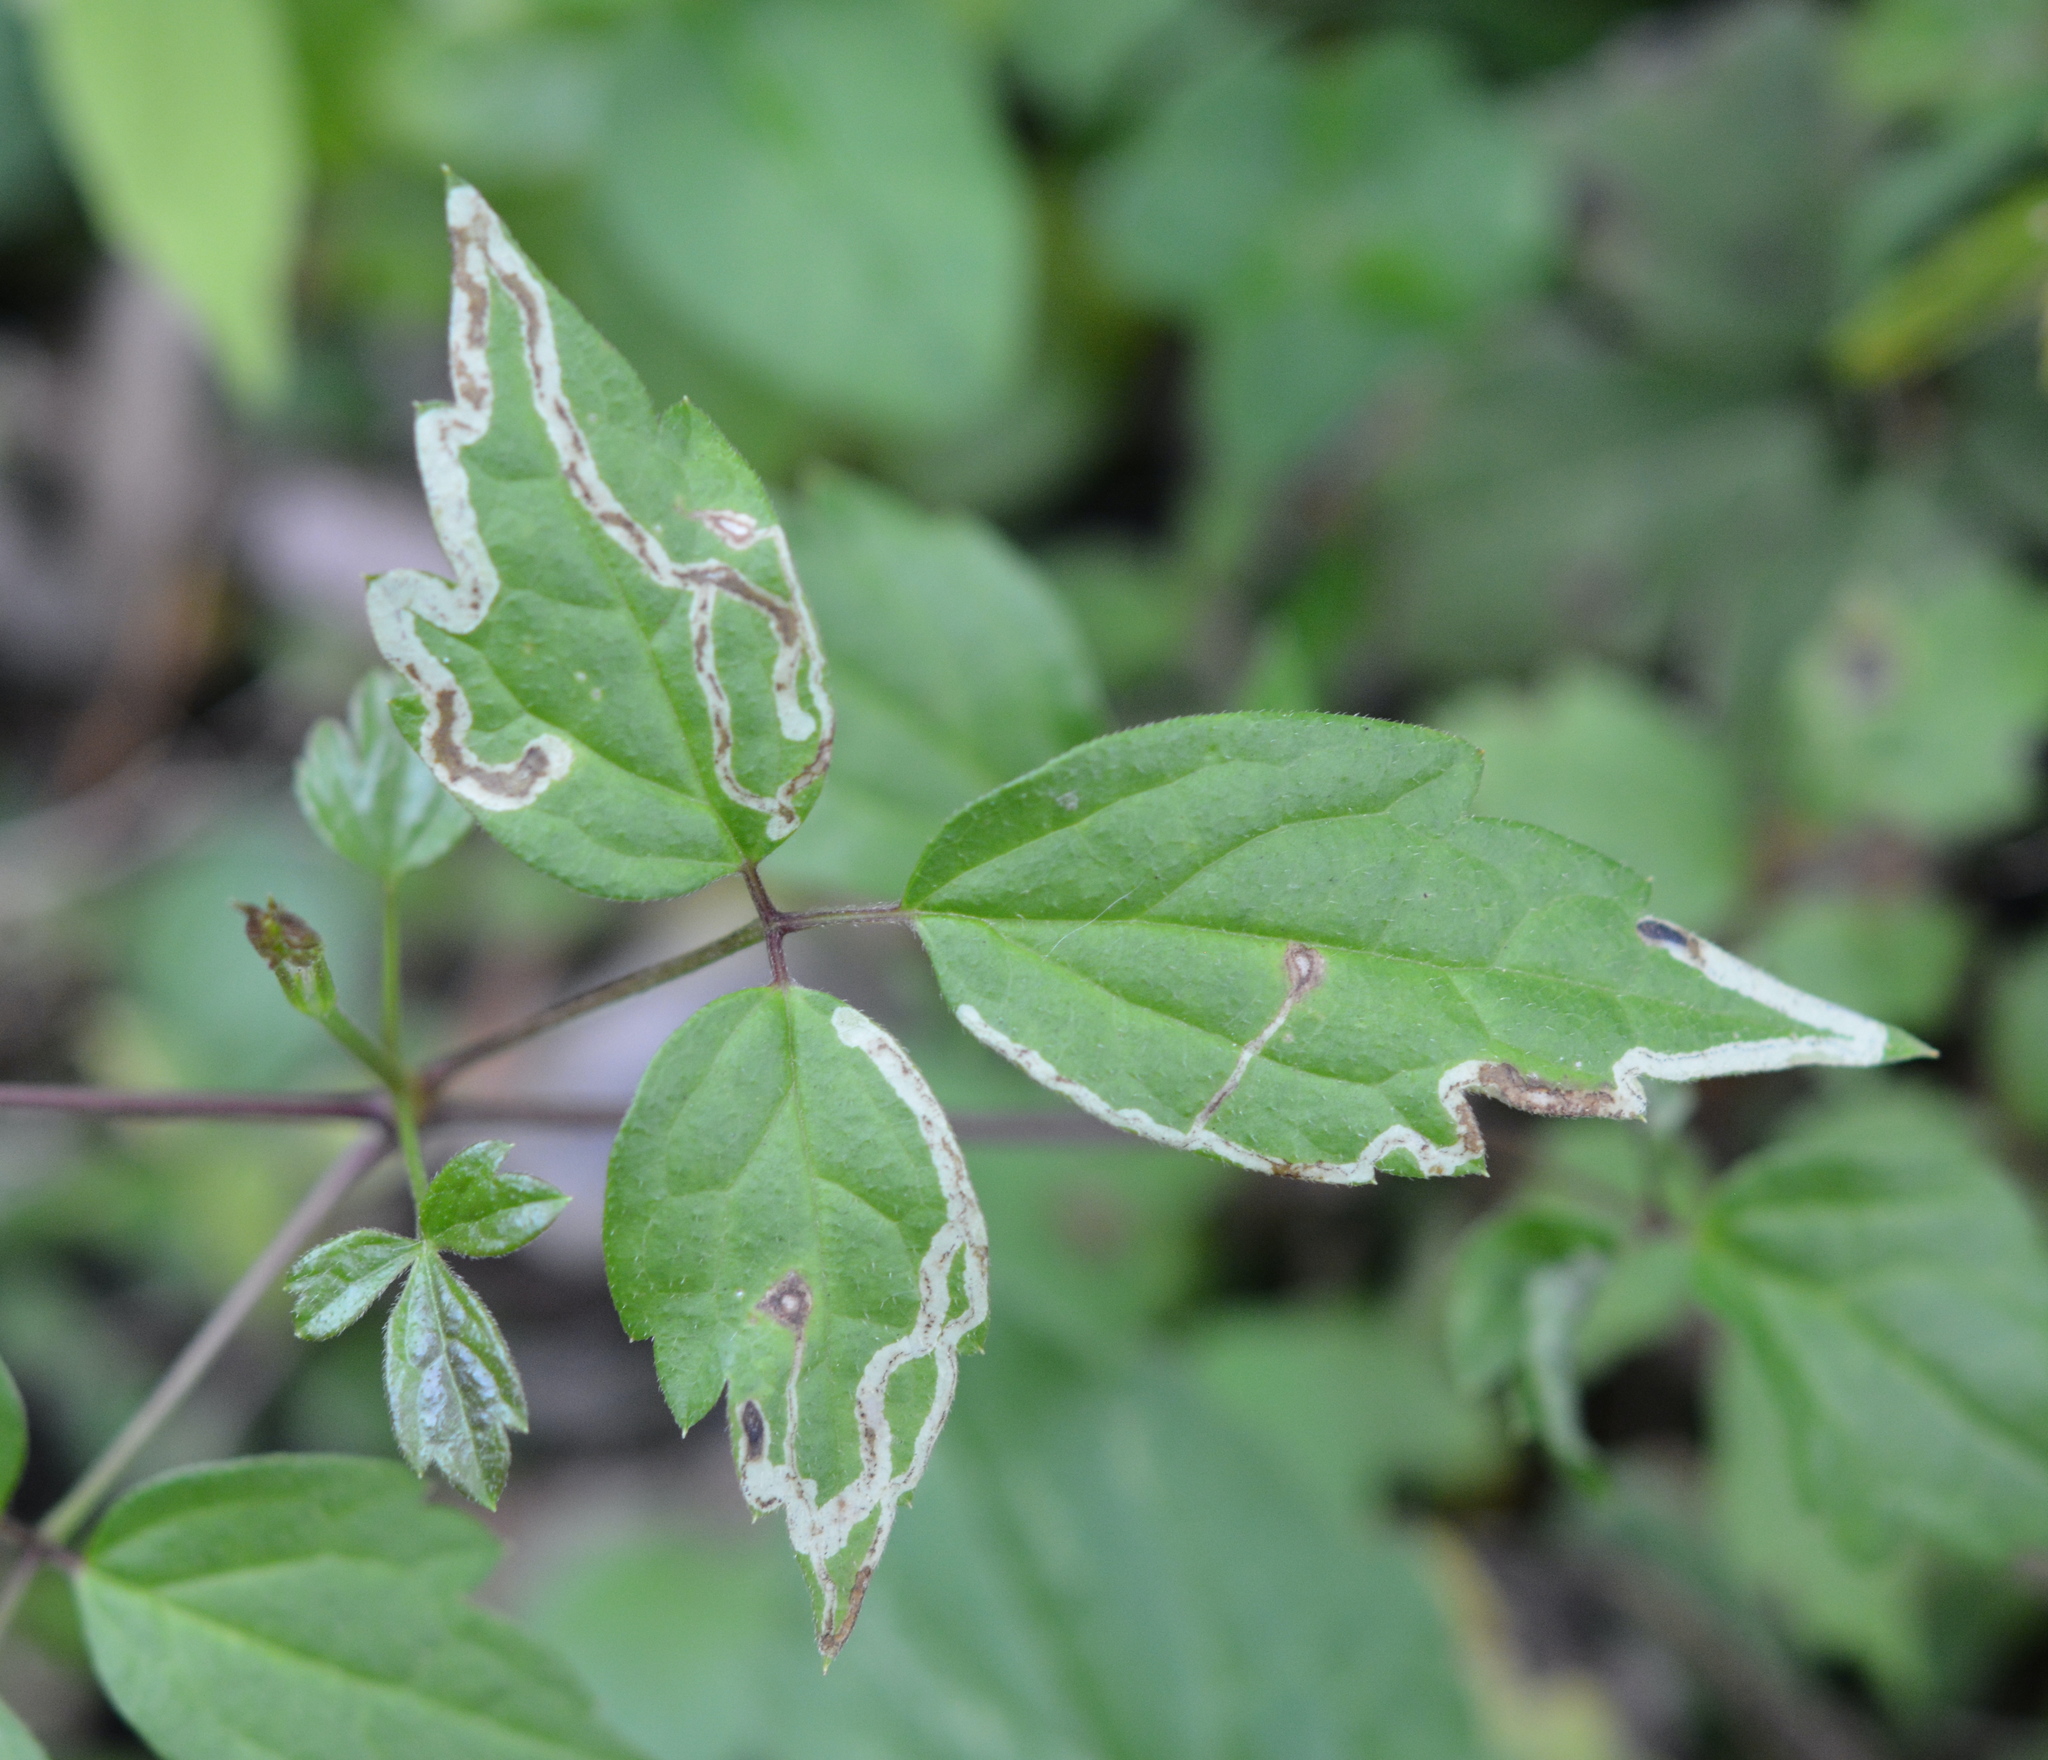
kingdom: Animalia
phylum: Arthropoda
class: Insecta
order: Diptera
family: Agromyzidae
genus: Phytomyza
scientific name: Phytomyza loewii
